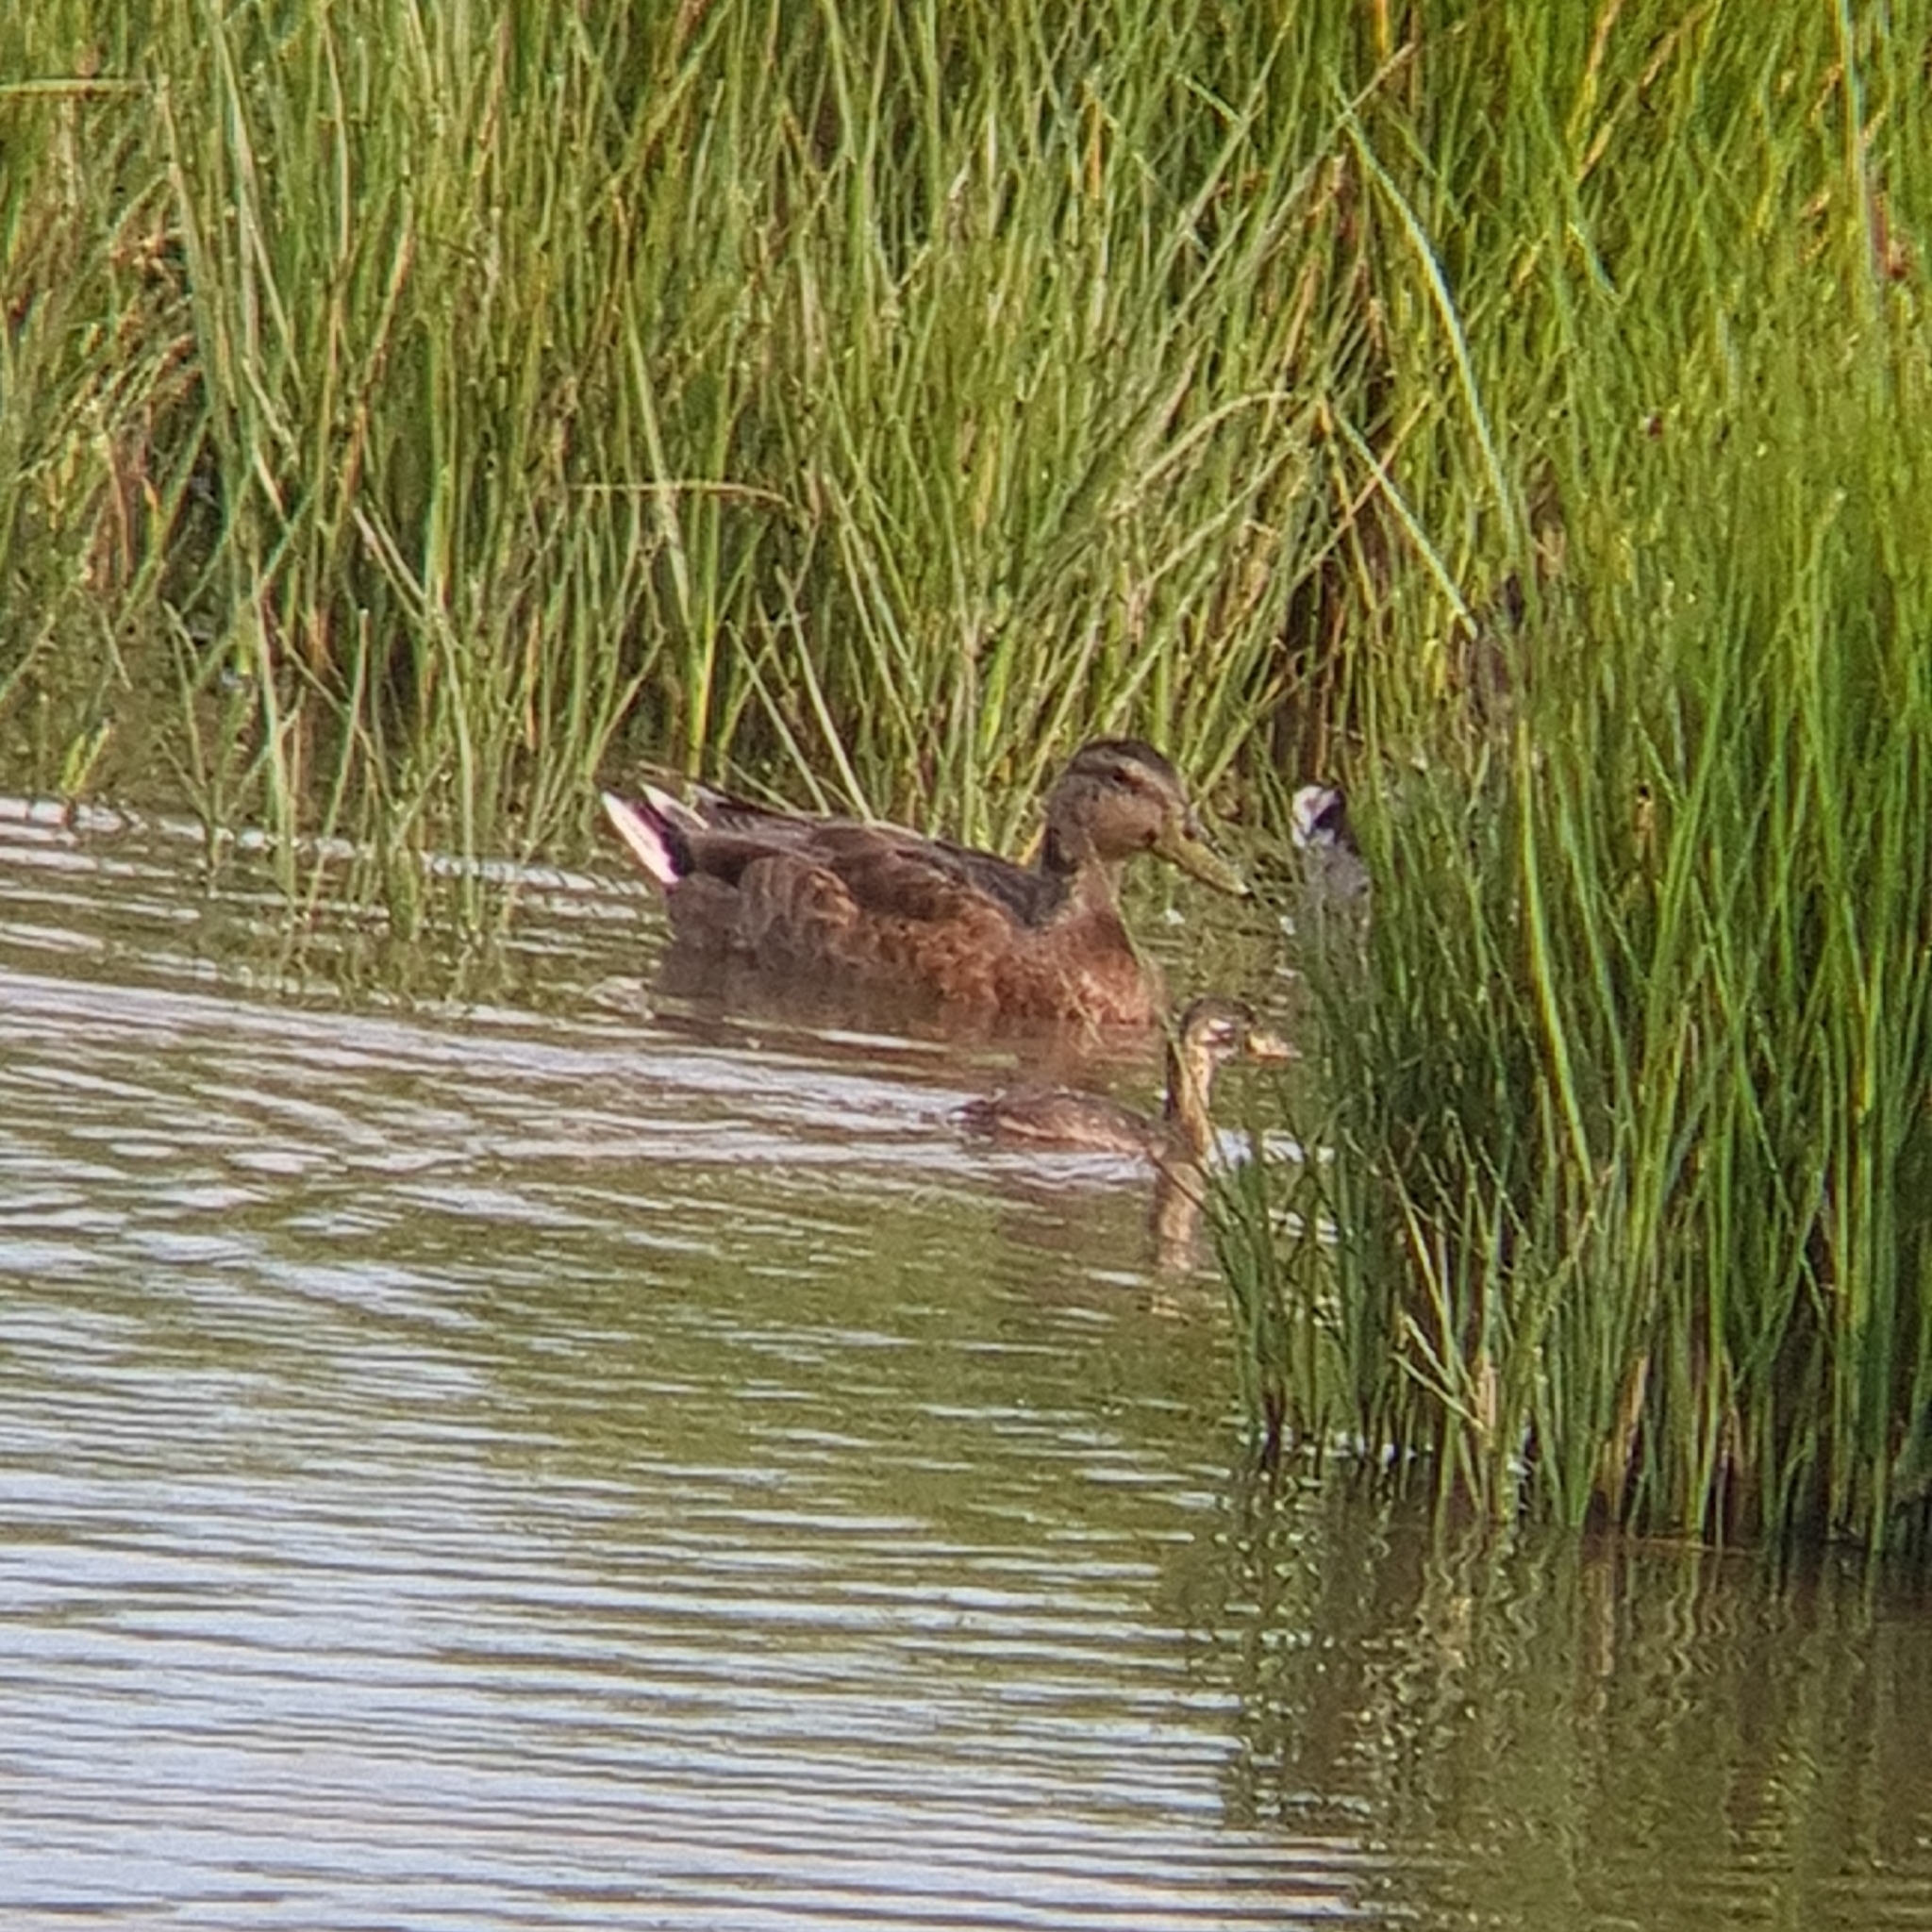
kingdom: Animalia
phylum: Chordata
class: Aves
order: Podicipediformes
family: Podicipedidae
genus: Tachybaptus
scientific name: Tachybaptus ruficollis
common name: Little grebe
